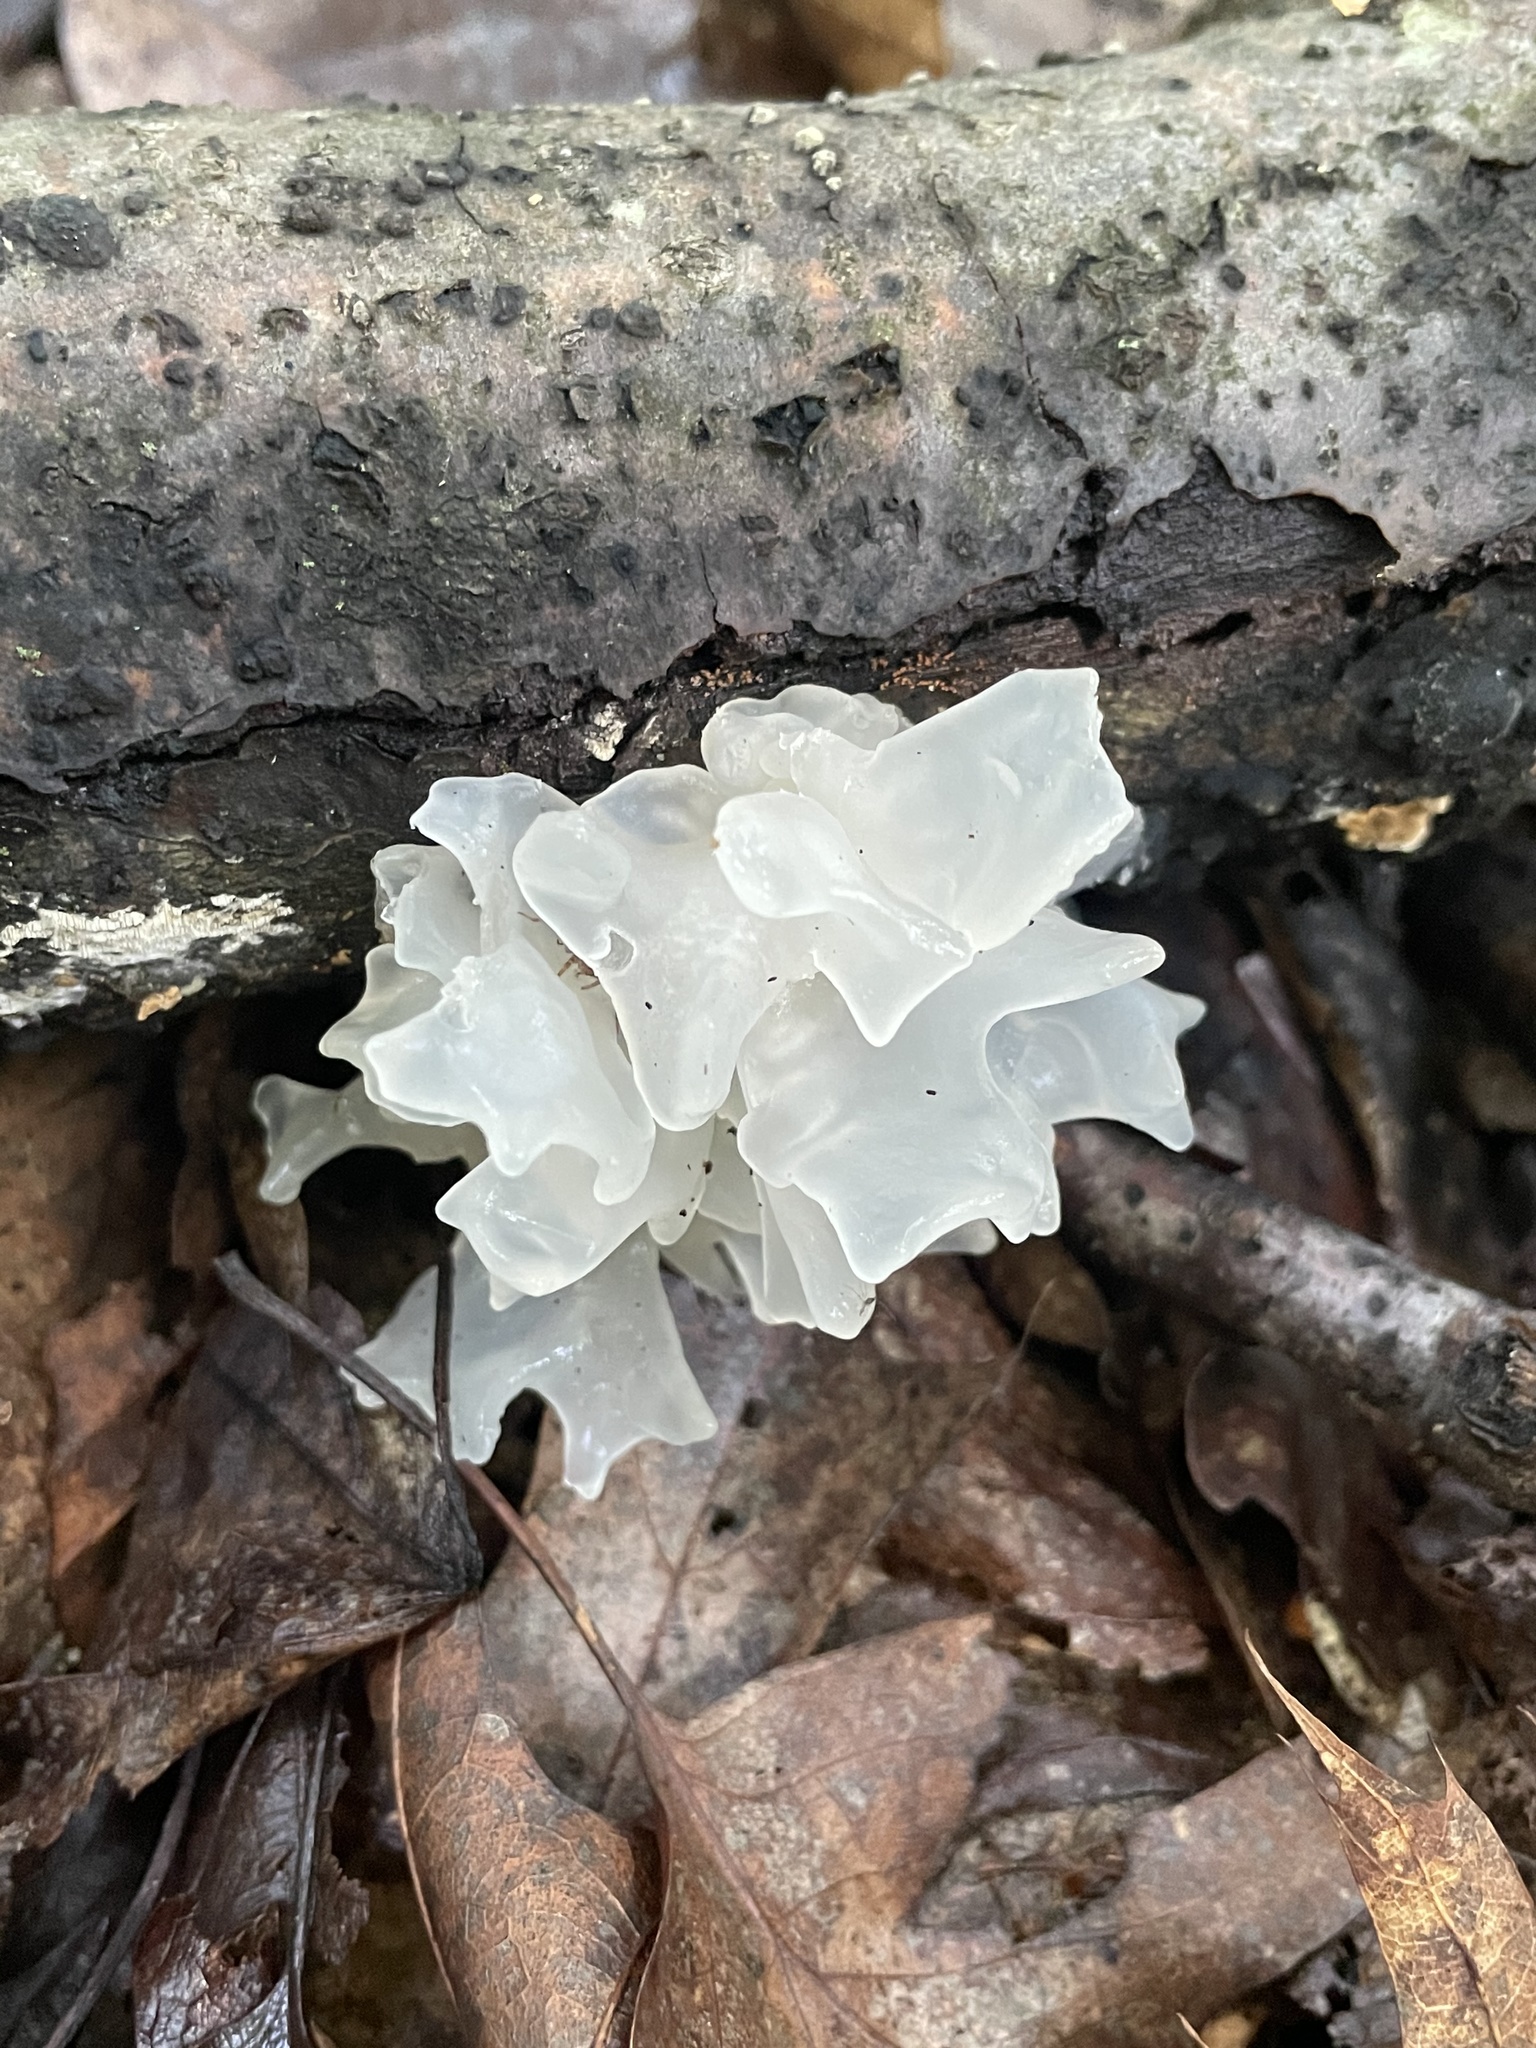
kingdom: Fungi
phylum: Basidiomycota
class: Tremellomycetes
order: Tremellales
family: Tremellaceae
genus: Tremella
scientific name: Tremella fuciformis
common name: Snow fungus
